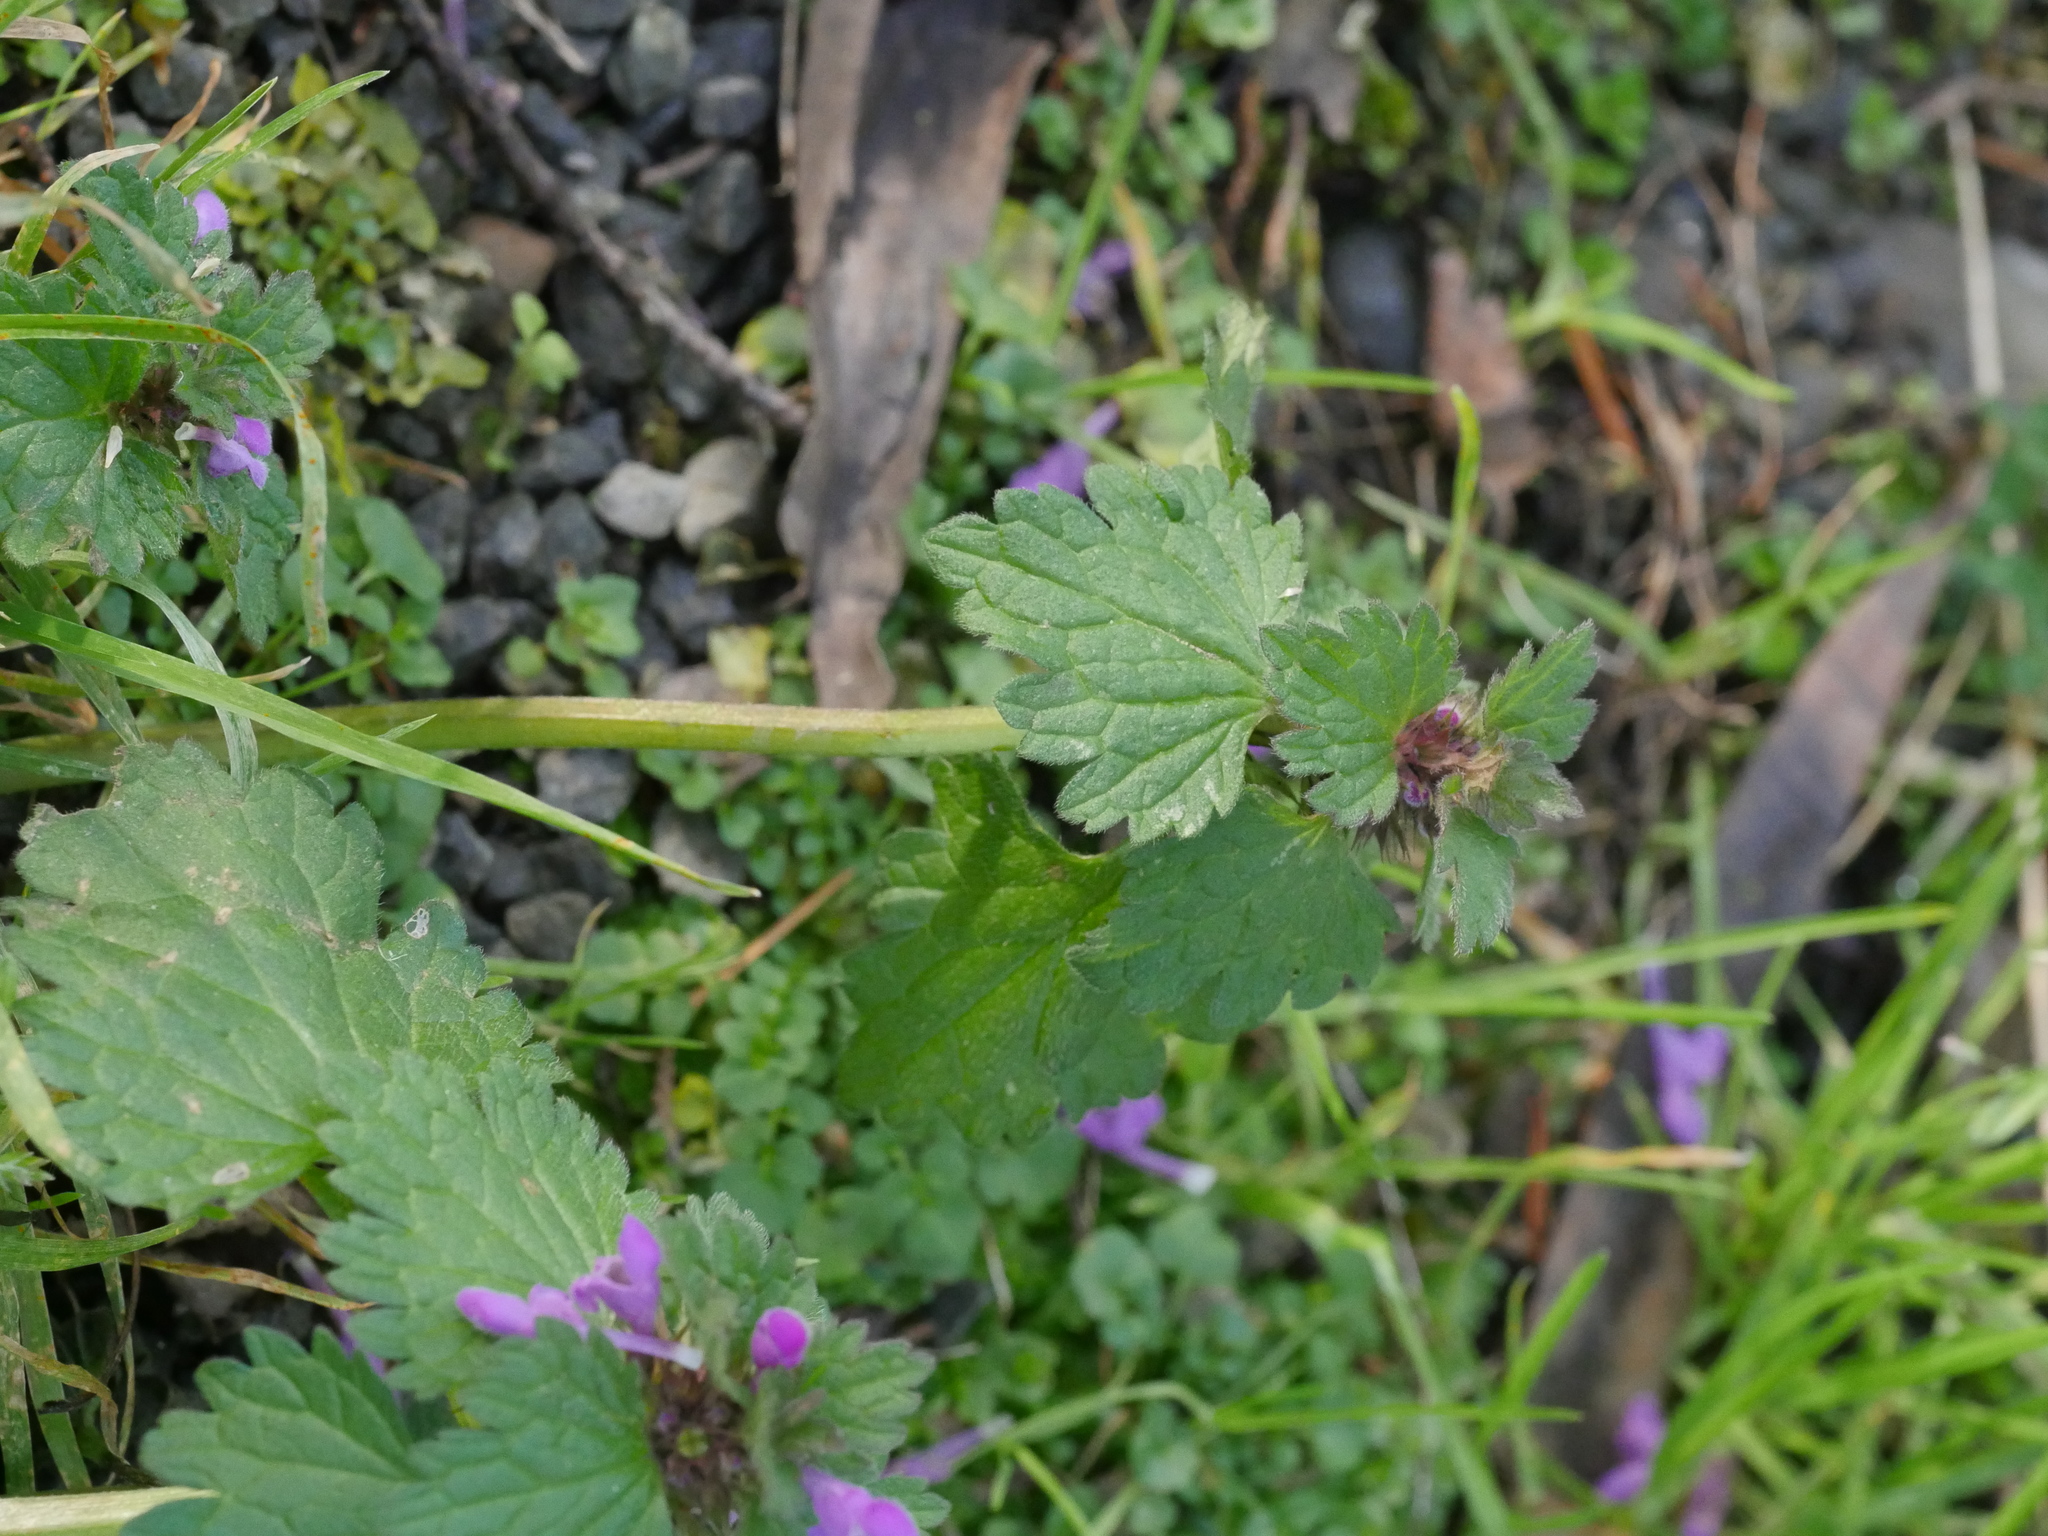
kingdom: Plantae
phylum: Tracheophyta
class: Magnoliopsida
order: Lamiales
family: Lamiaceae
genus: Lamium
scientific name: Lamium purpureum
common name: Red dead-nettle
